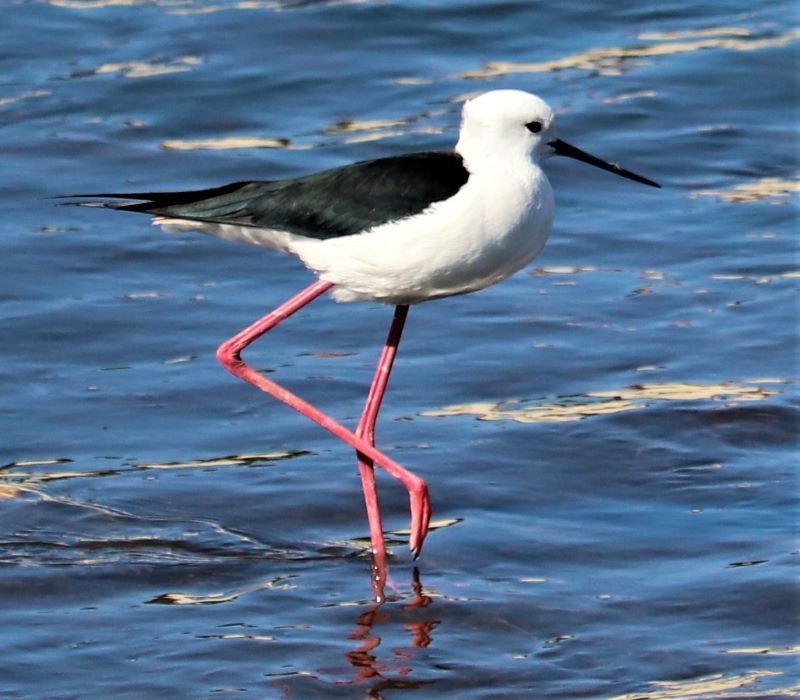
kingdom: Animalia
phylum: Chordata
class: Aves
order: Charadriiformes
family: Recurvirostridae
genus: Himantopus
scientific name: Himantopus himantopus
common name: Black-winged stilt
